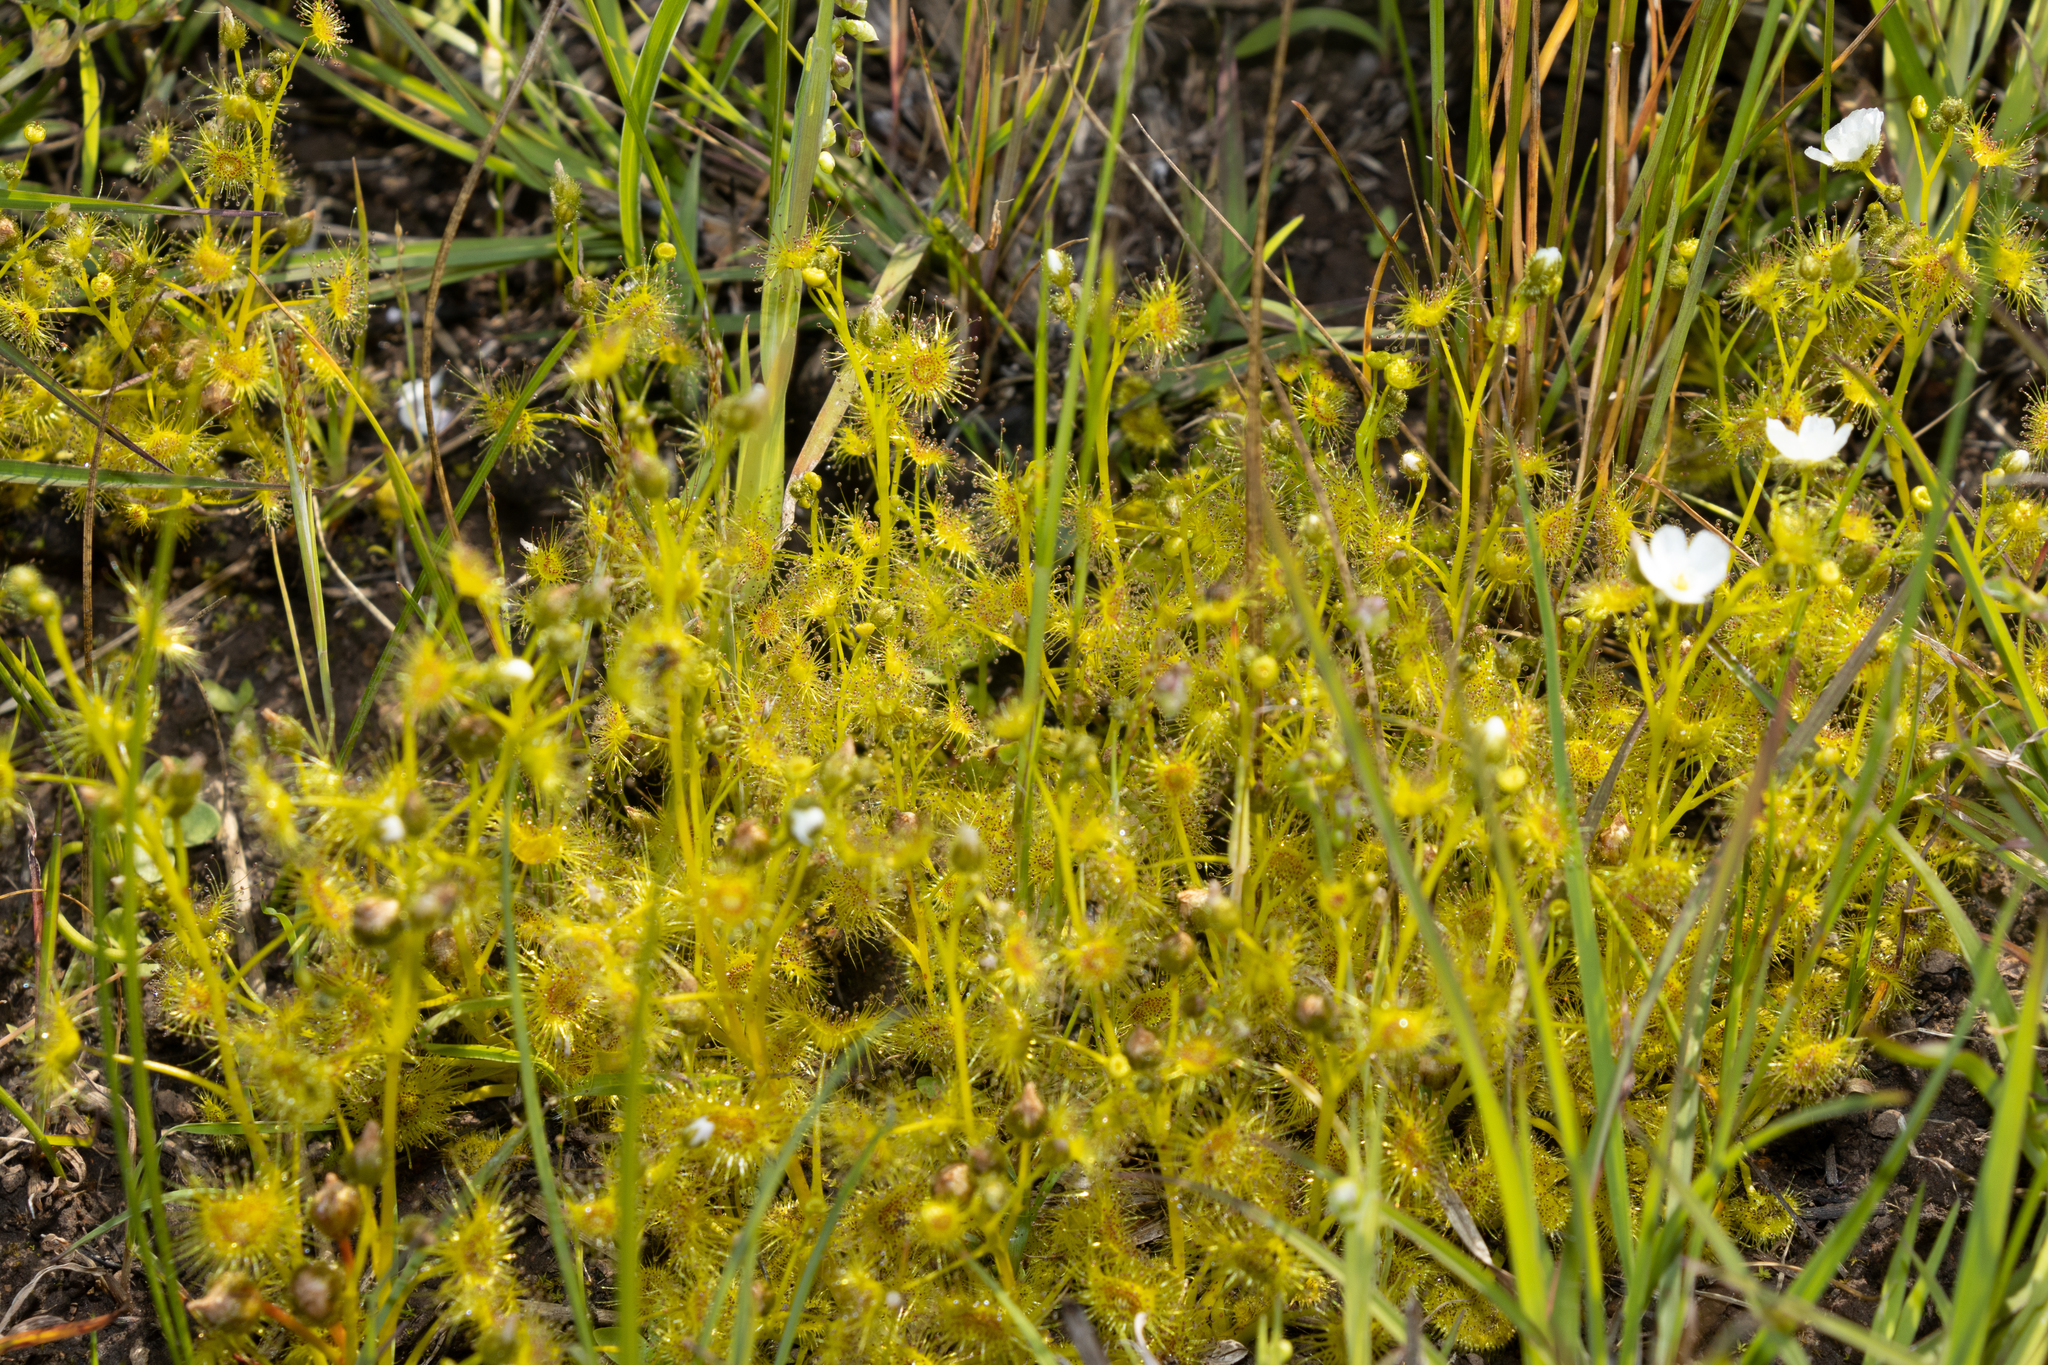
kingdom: Plantae
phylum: Tracheophyta
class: Magnoliopsida
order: Caryophyllales
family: Droseraceae
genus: Drosera
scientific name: Drosera hookeri
